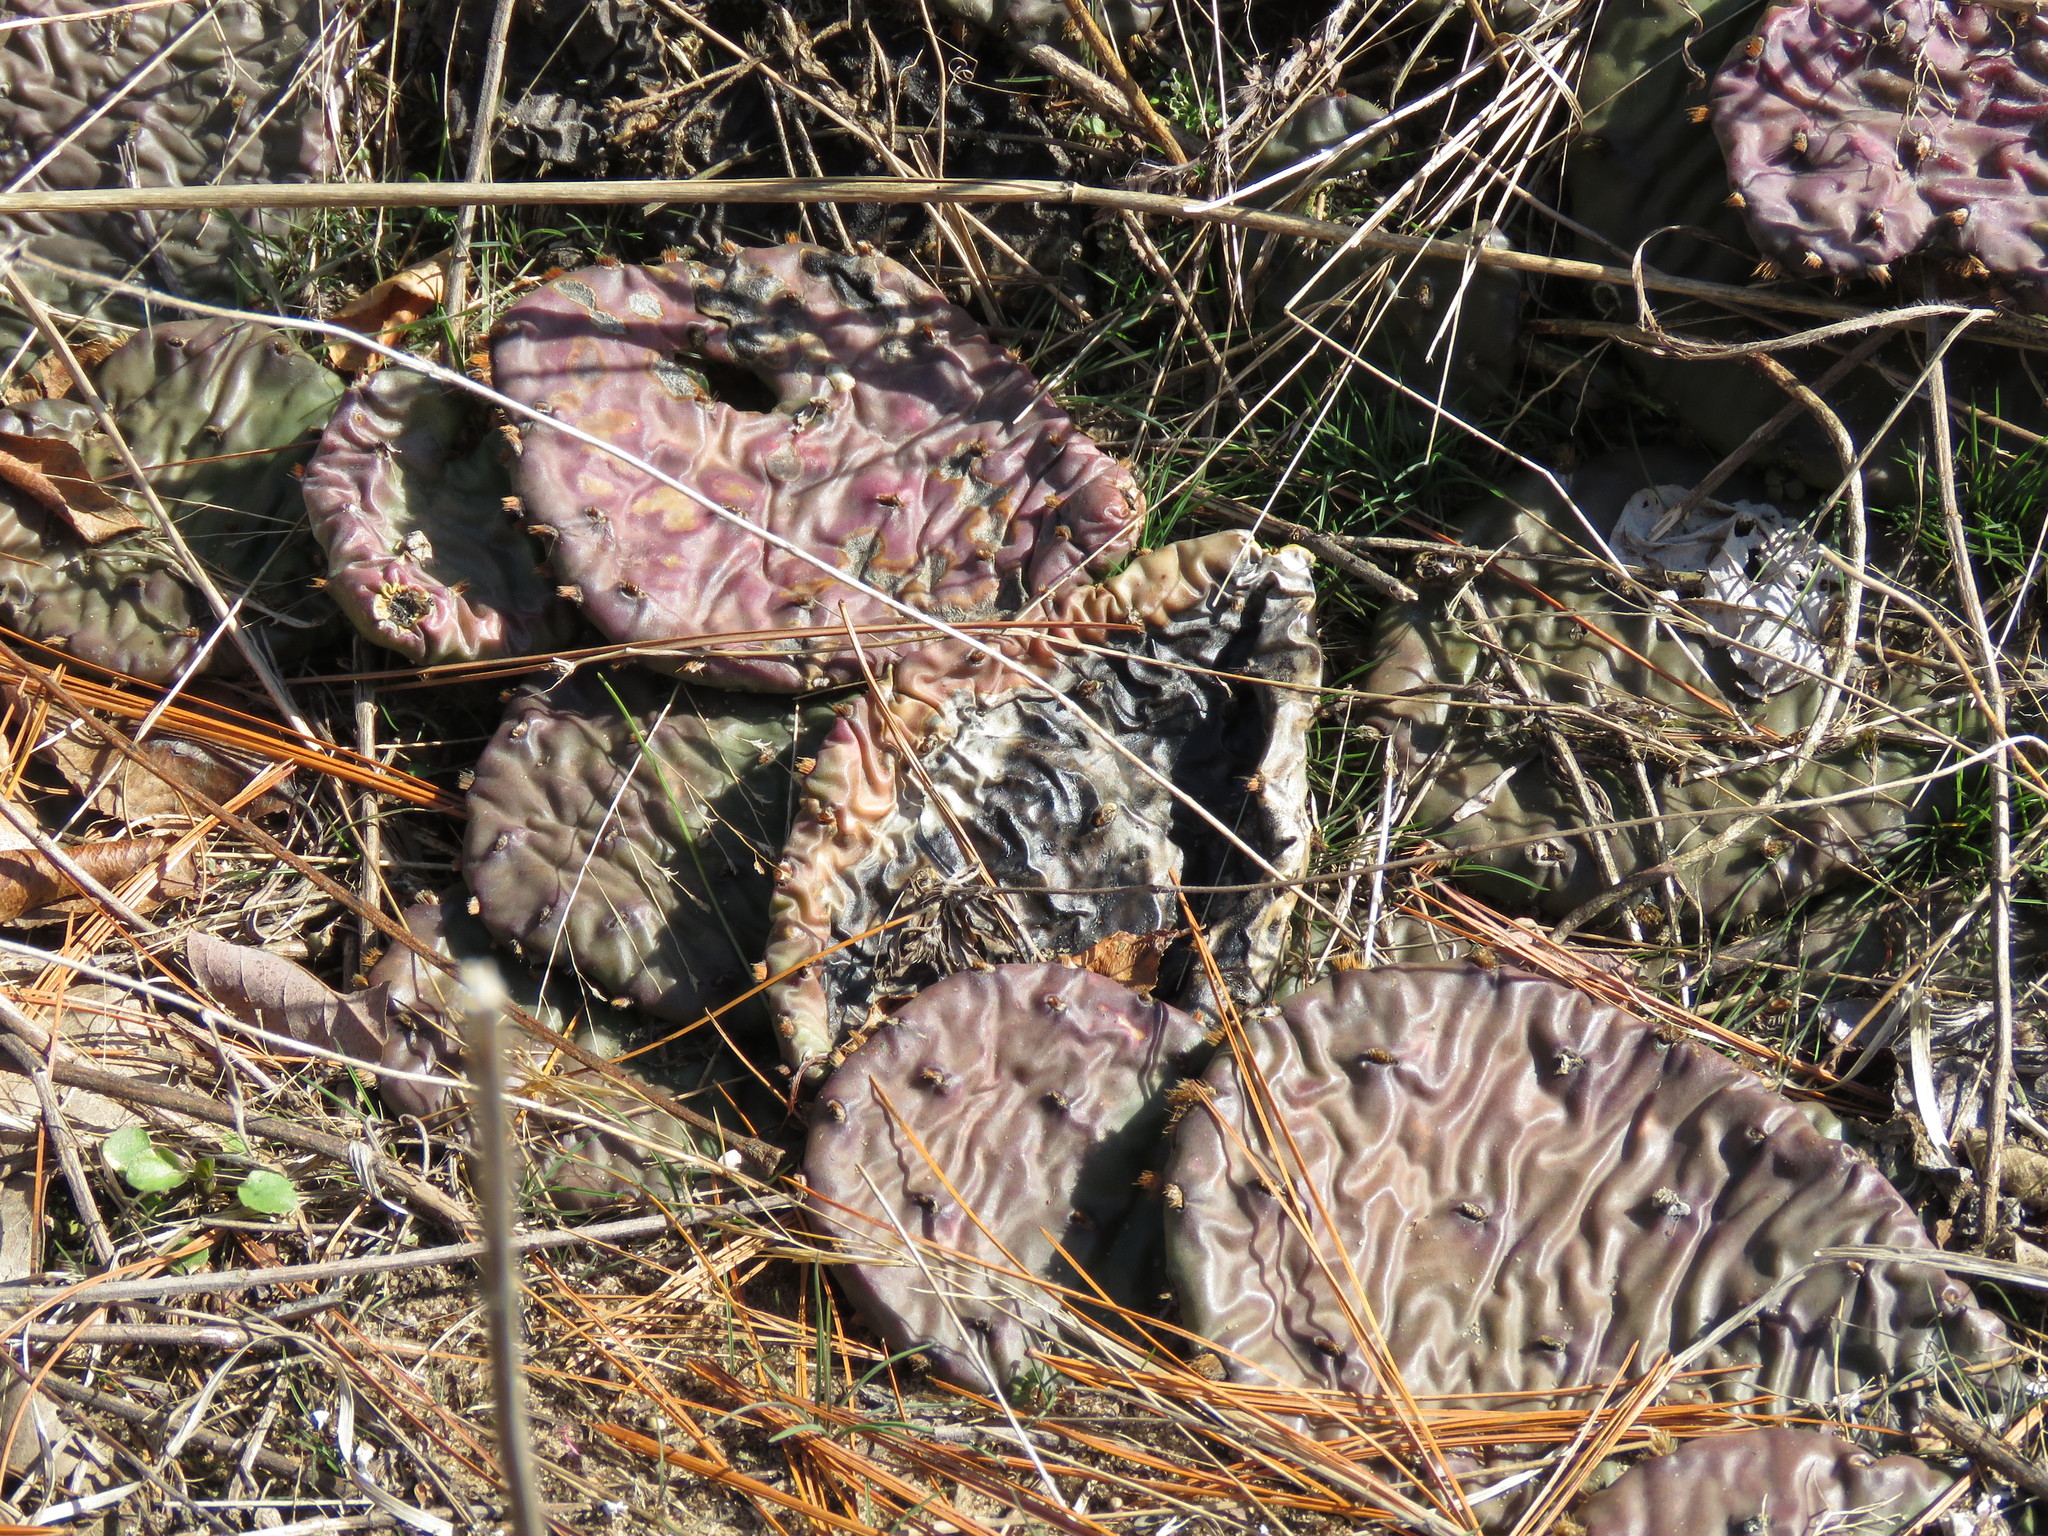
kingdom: Plantae
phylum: Tracheophyta
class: Magnoliopsida
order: Caryophyllales
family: Cactaceae
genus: Opuntia
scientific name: Opuntia macrorhiza
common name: Grassland pricklypear
